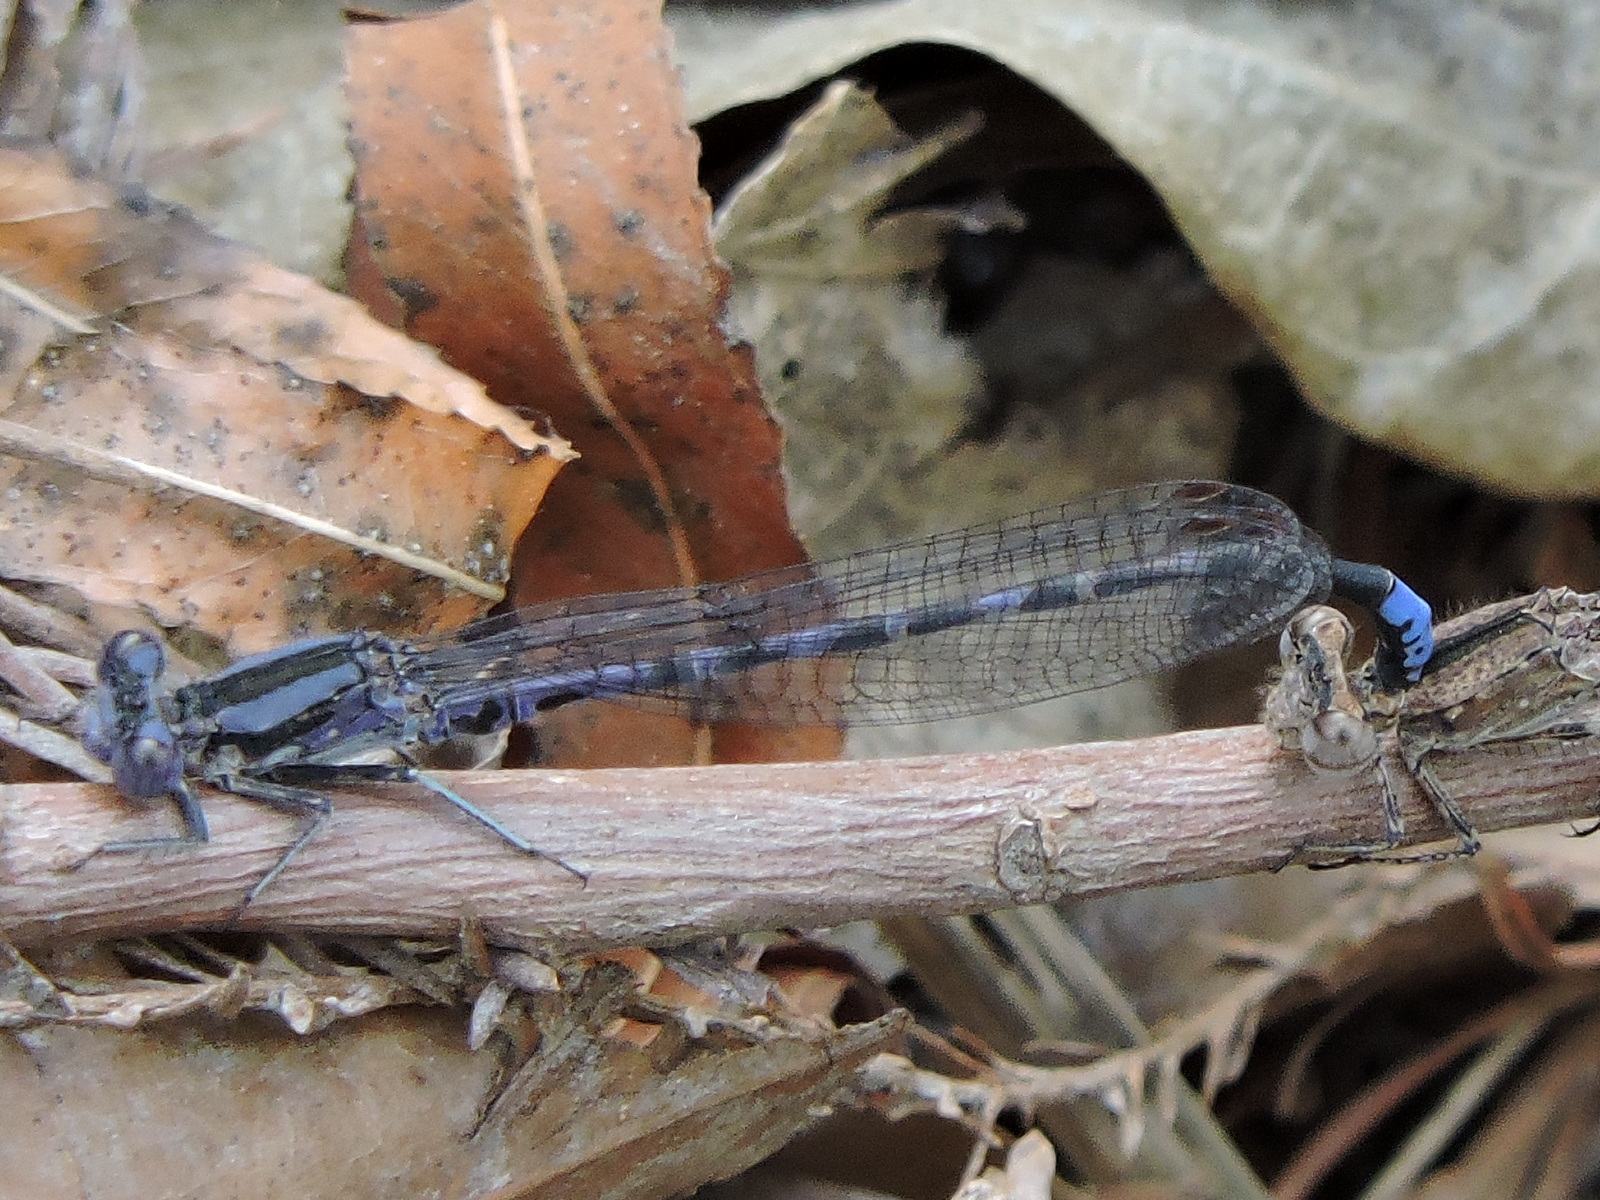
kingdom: Animalia
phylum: Arthropoda
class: Insecta
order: Odonata
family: Coenagrionidae
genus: Argia
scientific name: Argia immunda
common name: Kiowa dancer
